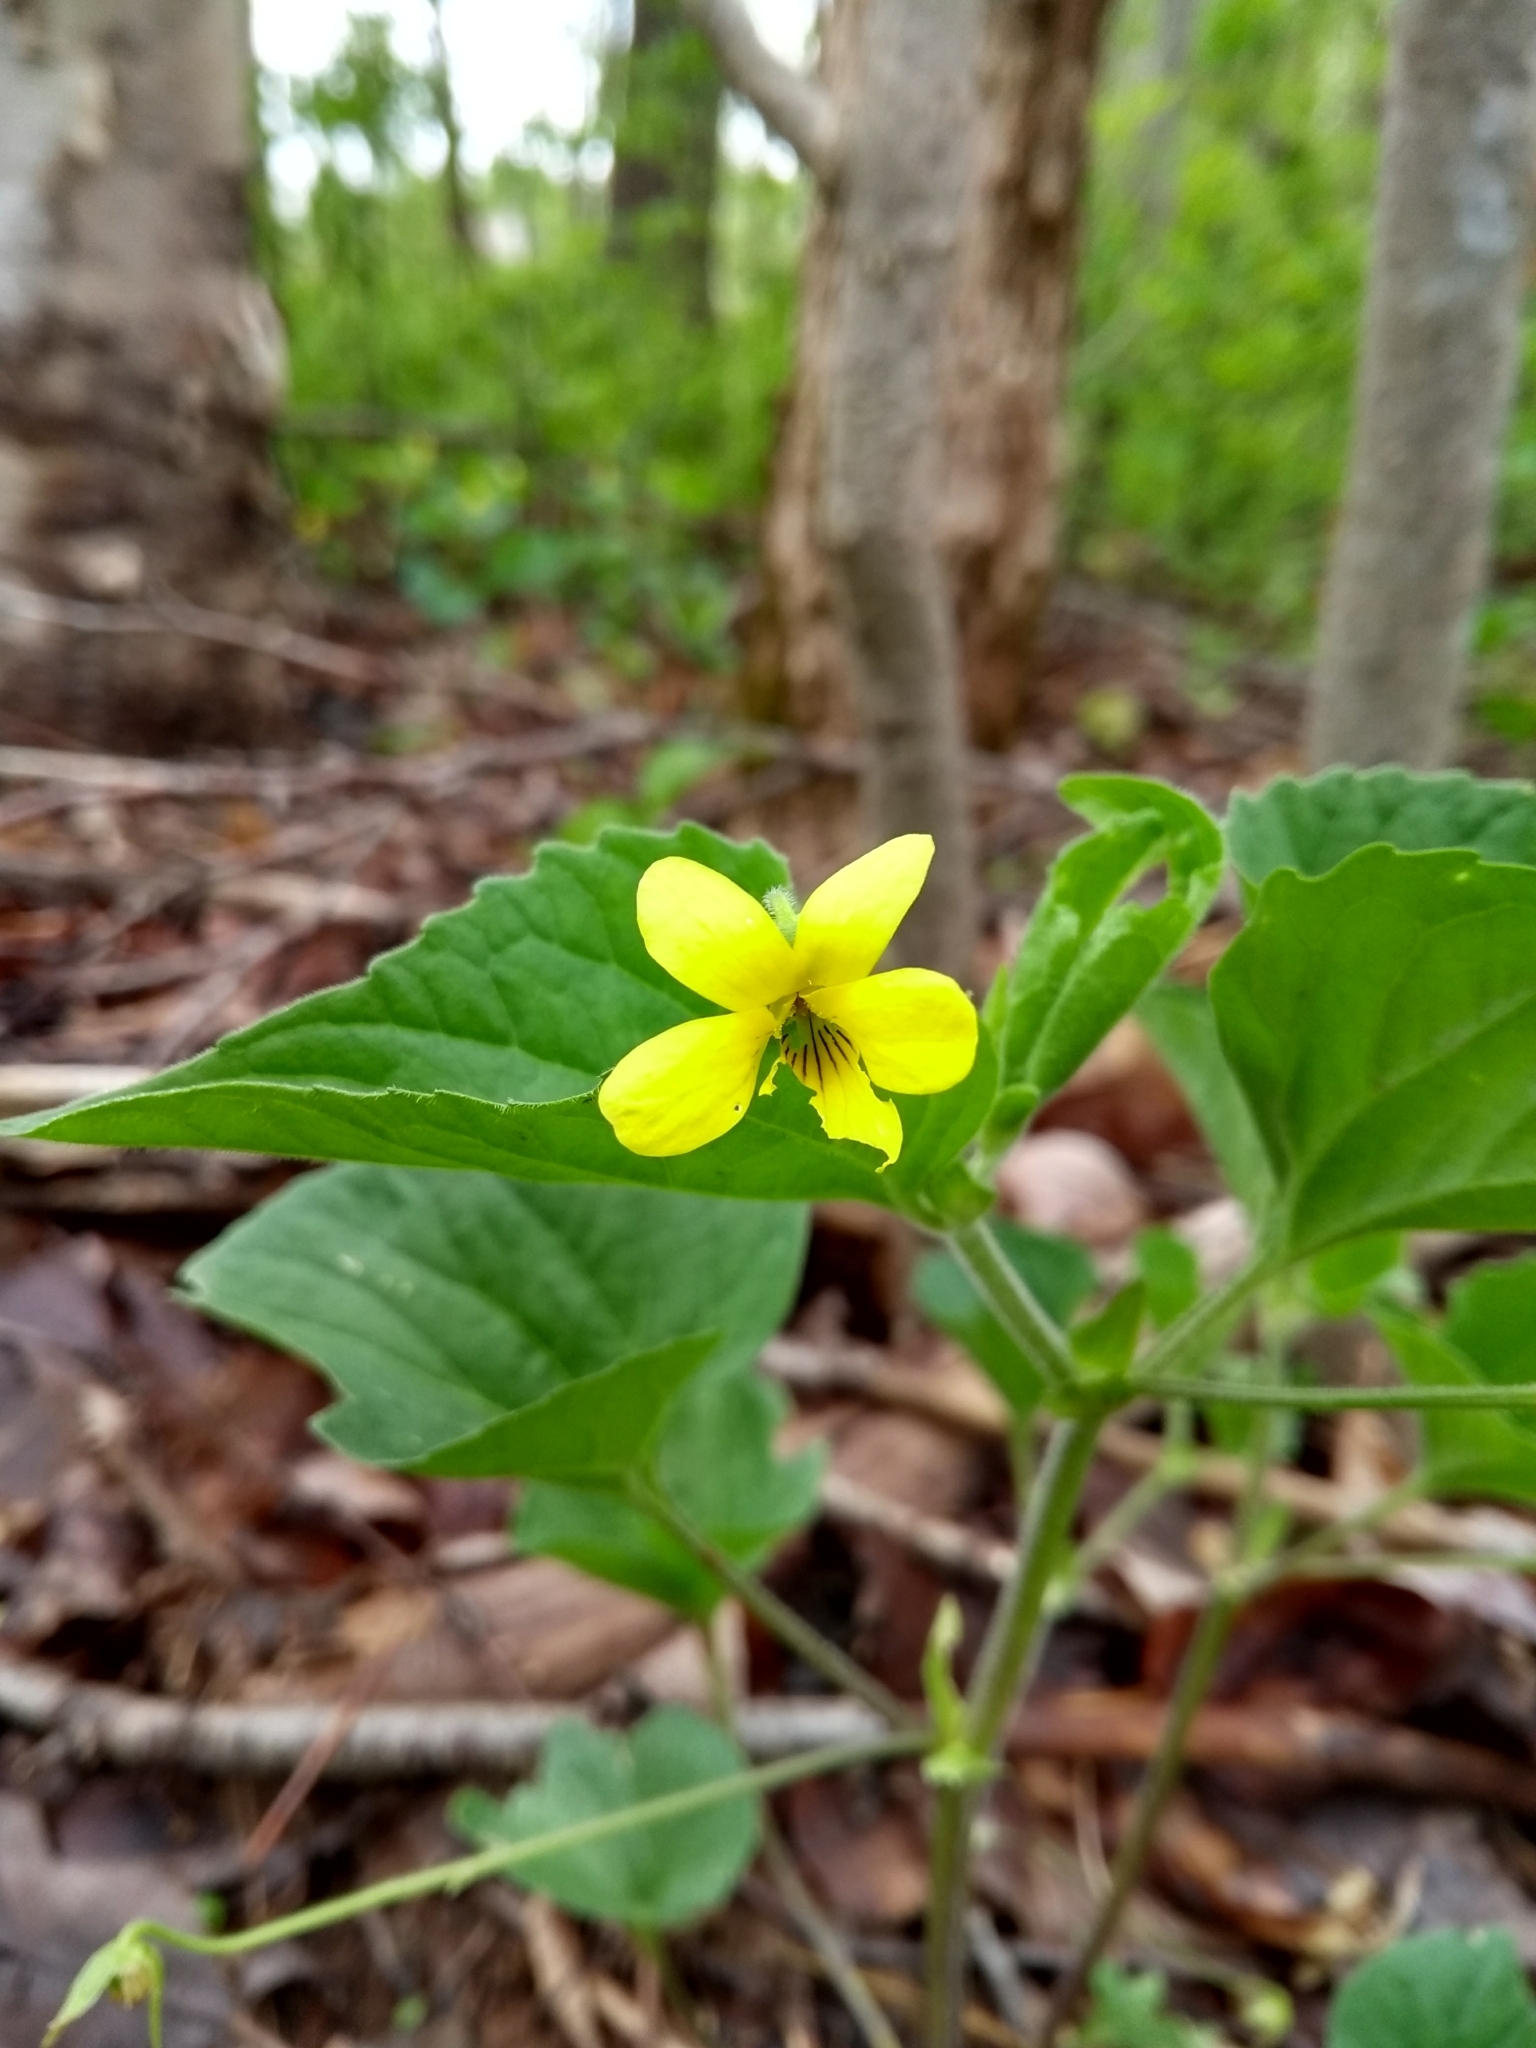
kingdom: Plantae
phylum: Tracheophyta
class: Magnoliopsida
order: Malpighiales
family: Violaceae
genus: Viola
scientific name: Viola eriocarpa
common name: Smooth yellow violet
